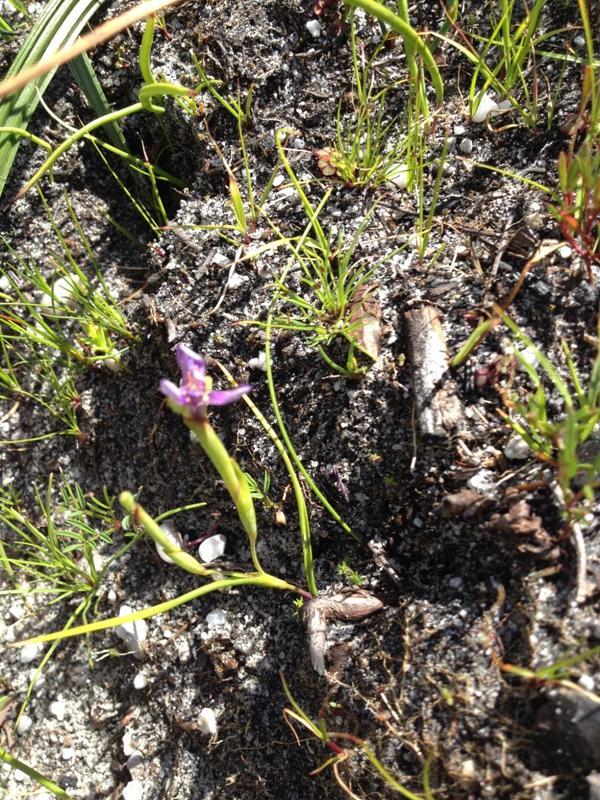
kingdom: Plantae
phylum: Tracheophyta
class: Liliopsida
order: Asparagales
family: Iridaceae
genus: Moraea
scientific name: Moraea lugubris
